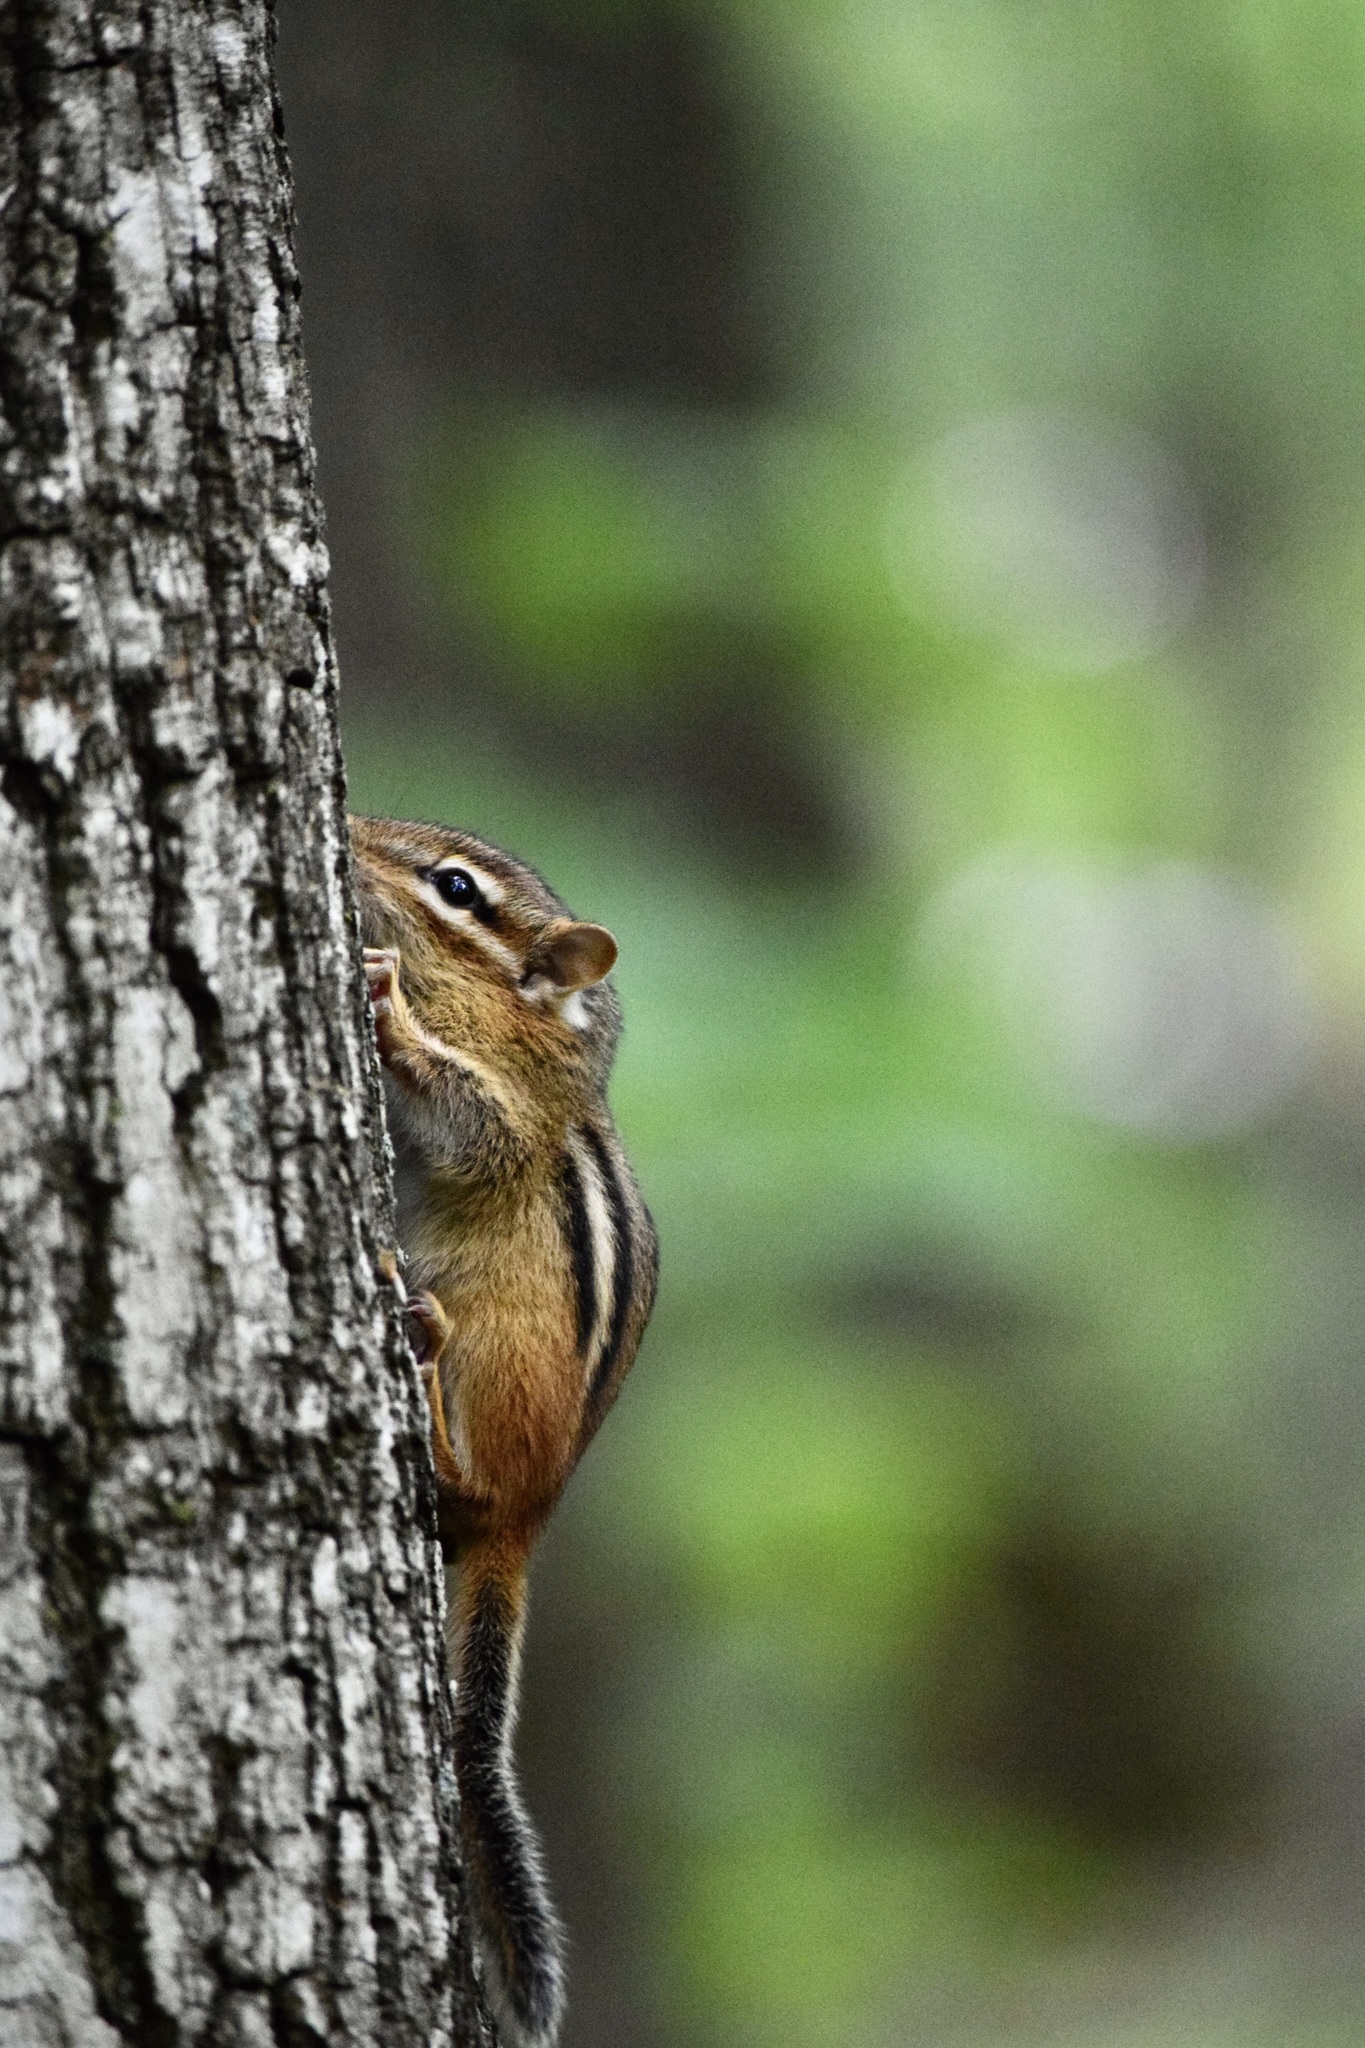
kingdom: Animalia
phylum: Chordata
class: Mammalia
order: Rodentia
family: Sciuridae
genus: Tamias
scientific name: Tamias striatus
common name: Eastern chipmunk
